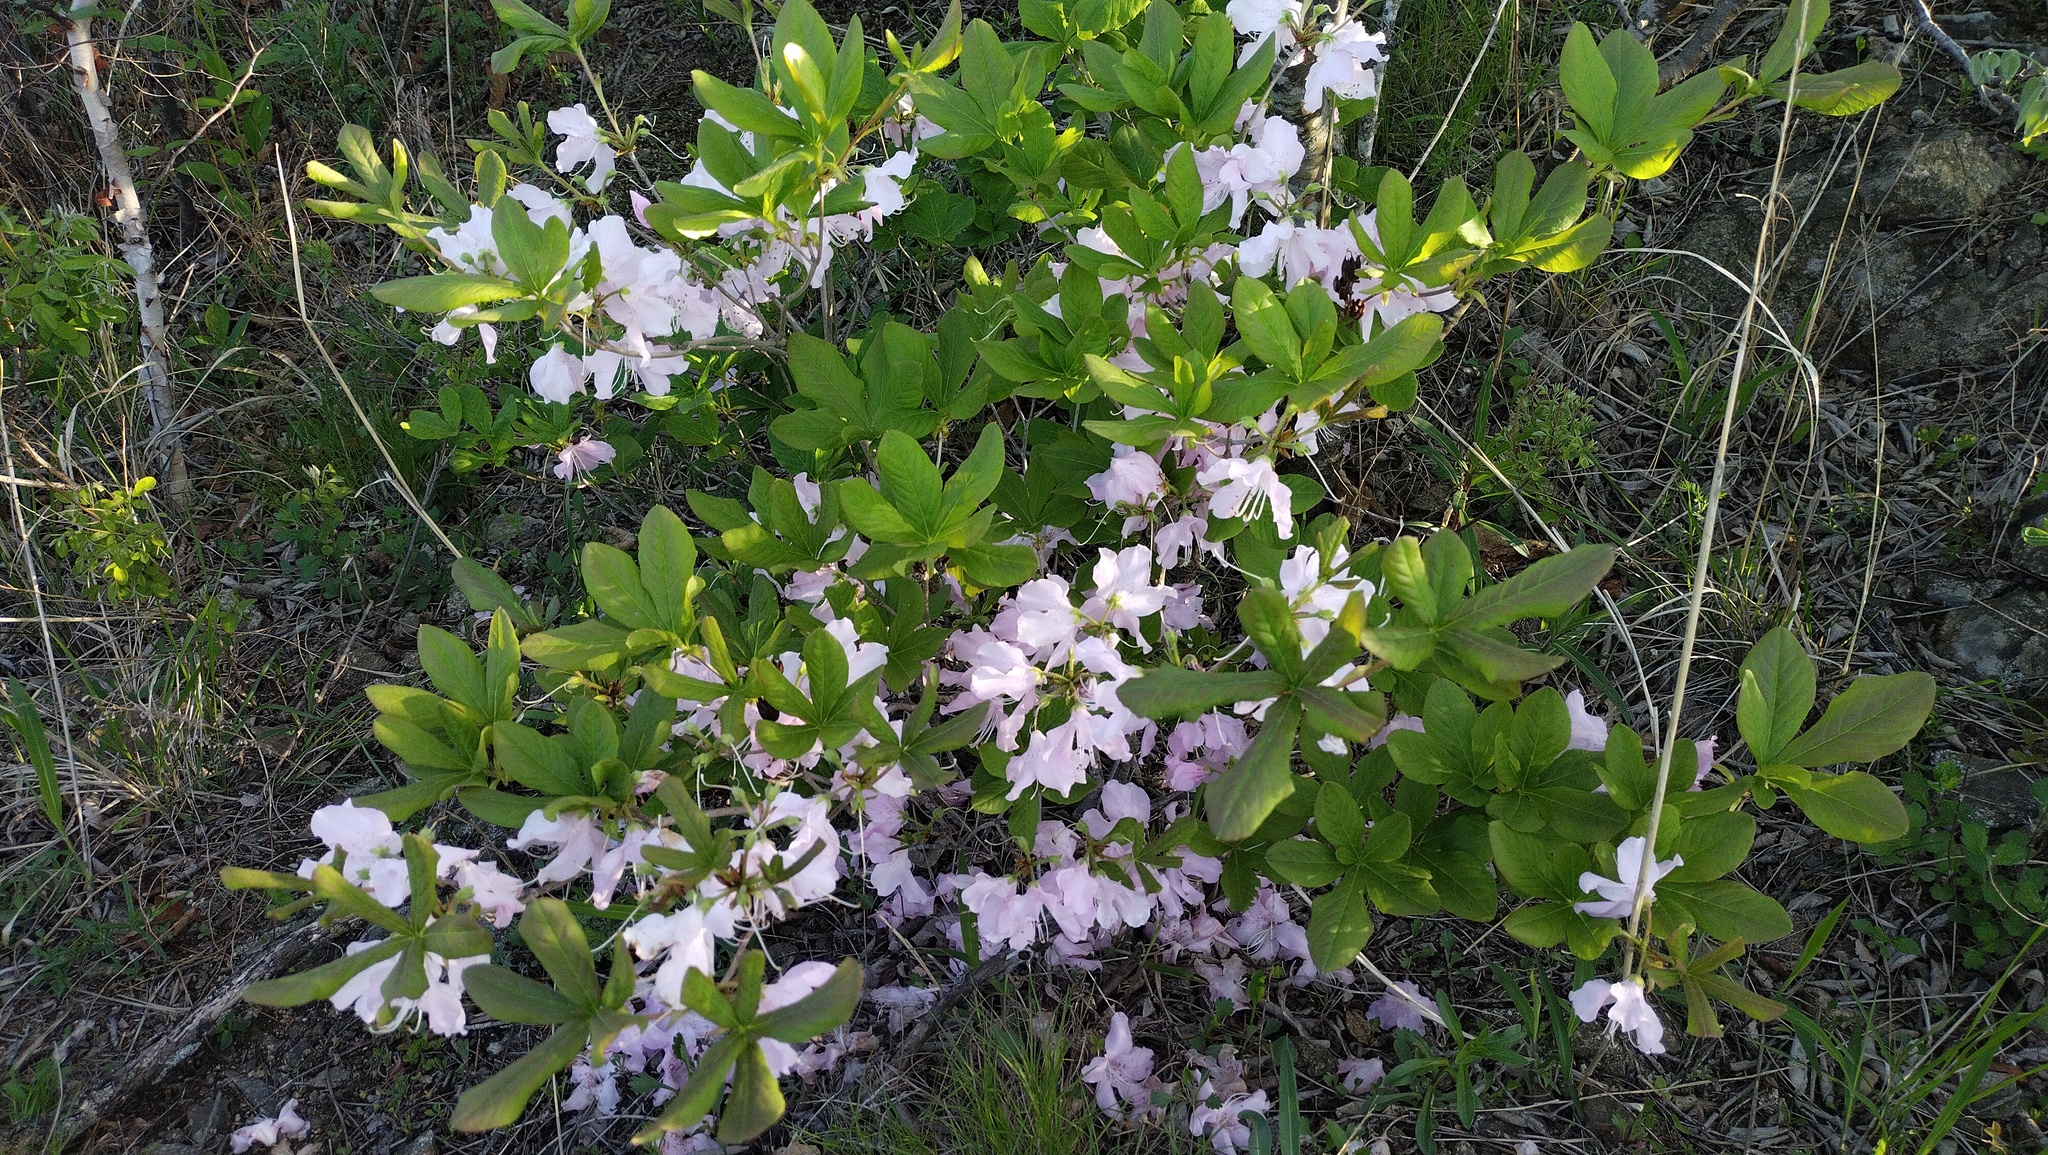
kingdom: Plantae
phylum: Tracheophyta
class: Magnoliopsida
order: Ericales
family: Ericaceae
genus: Rhododendron
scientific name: Rhododendron schlippenbachii
